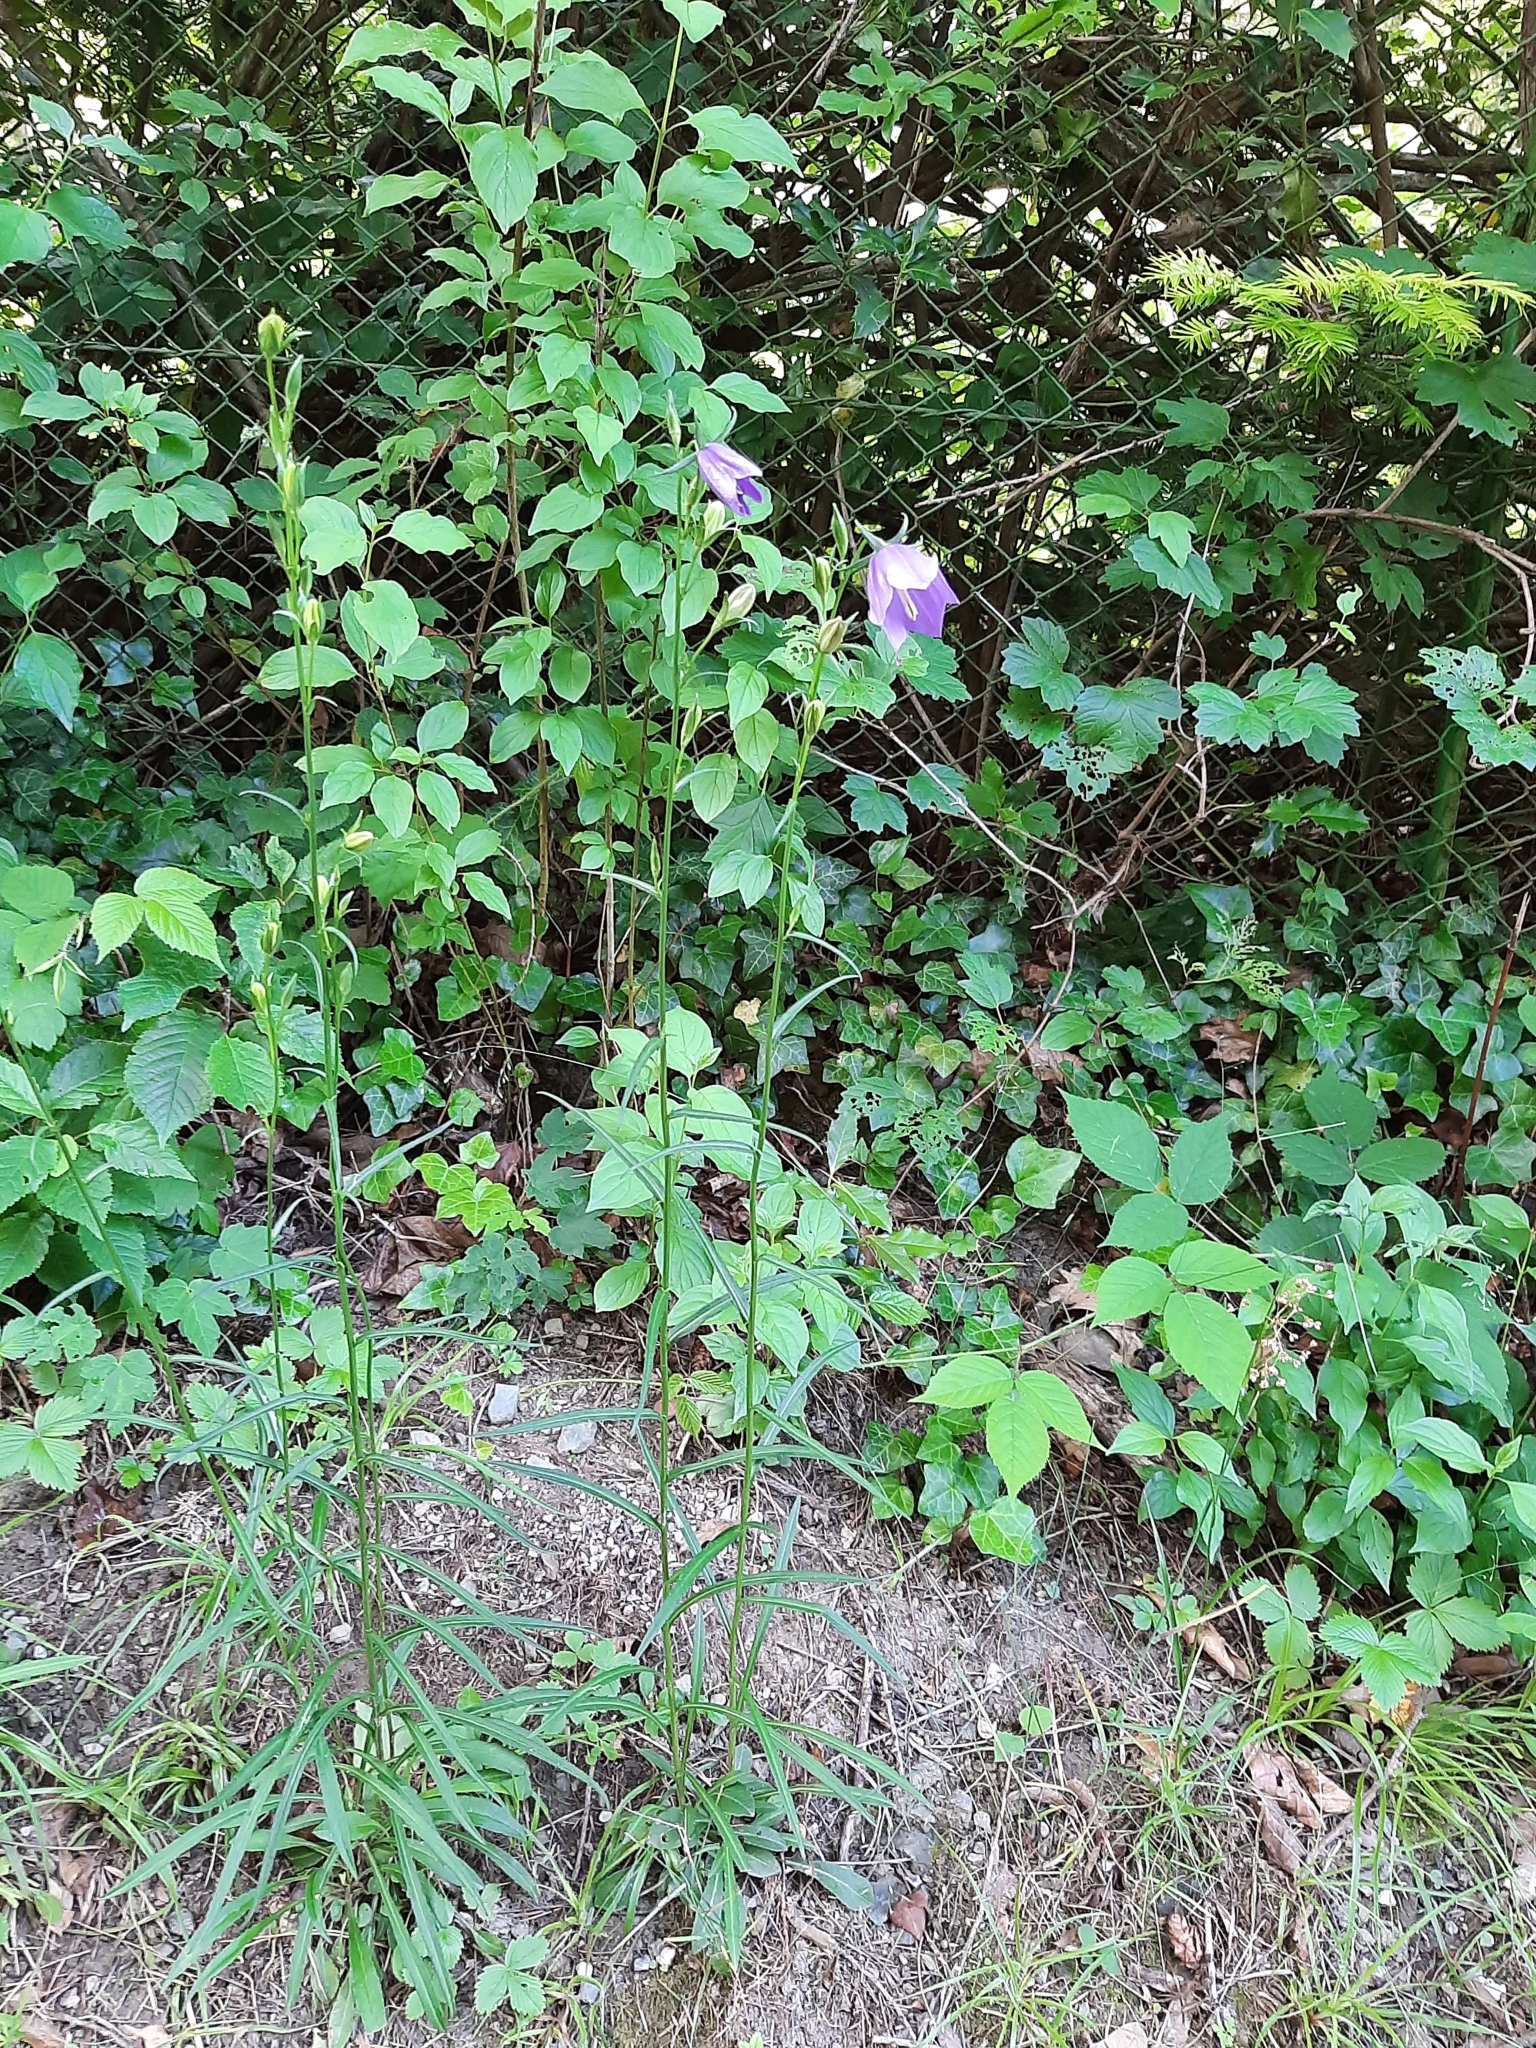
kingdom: Plantae
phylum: Tracheophyta
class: Magnoliopsida
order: Asterales
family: Campanulaceae
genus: Campanula
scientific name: Campanula persicifolia
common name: Peach-leaved bellflower
